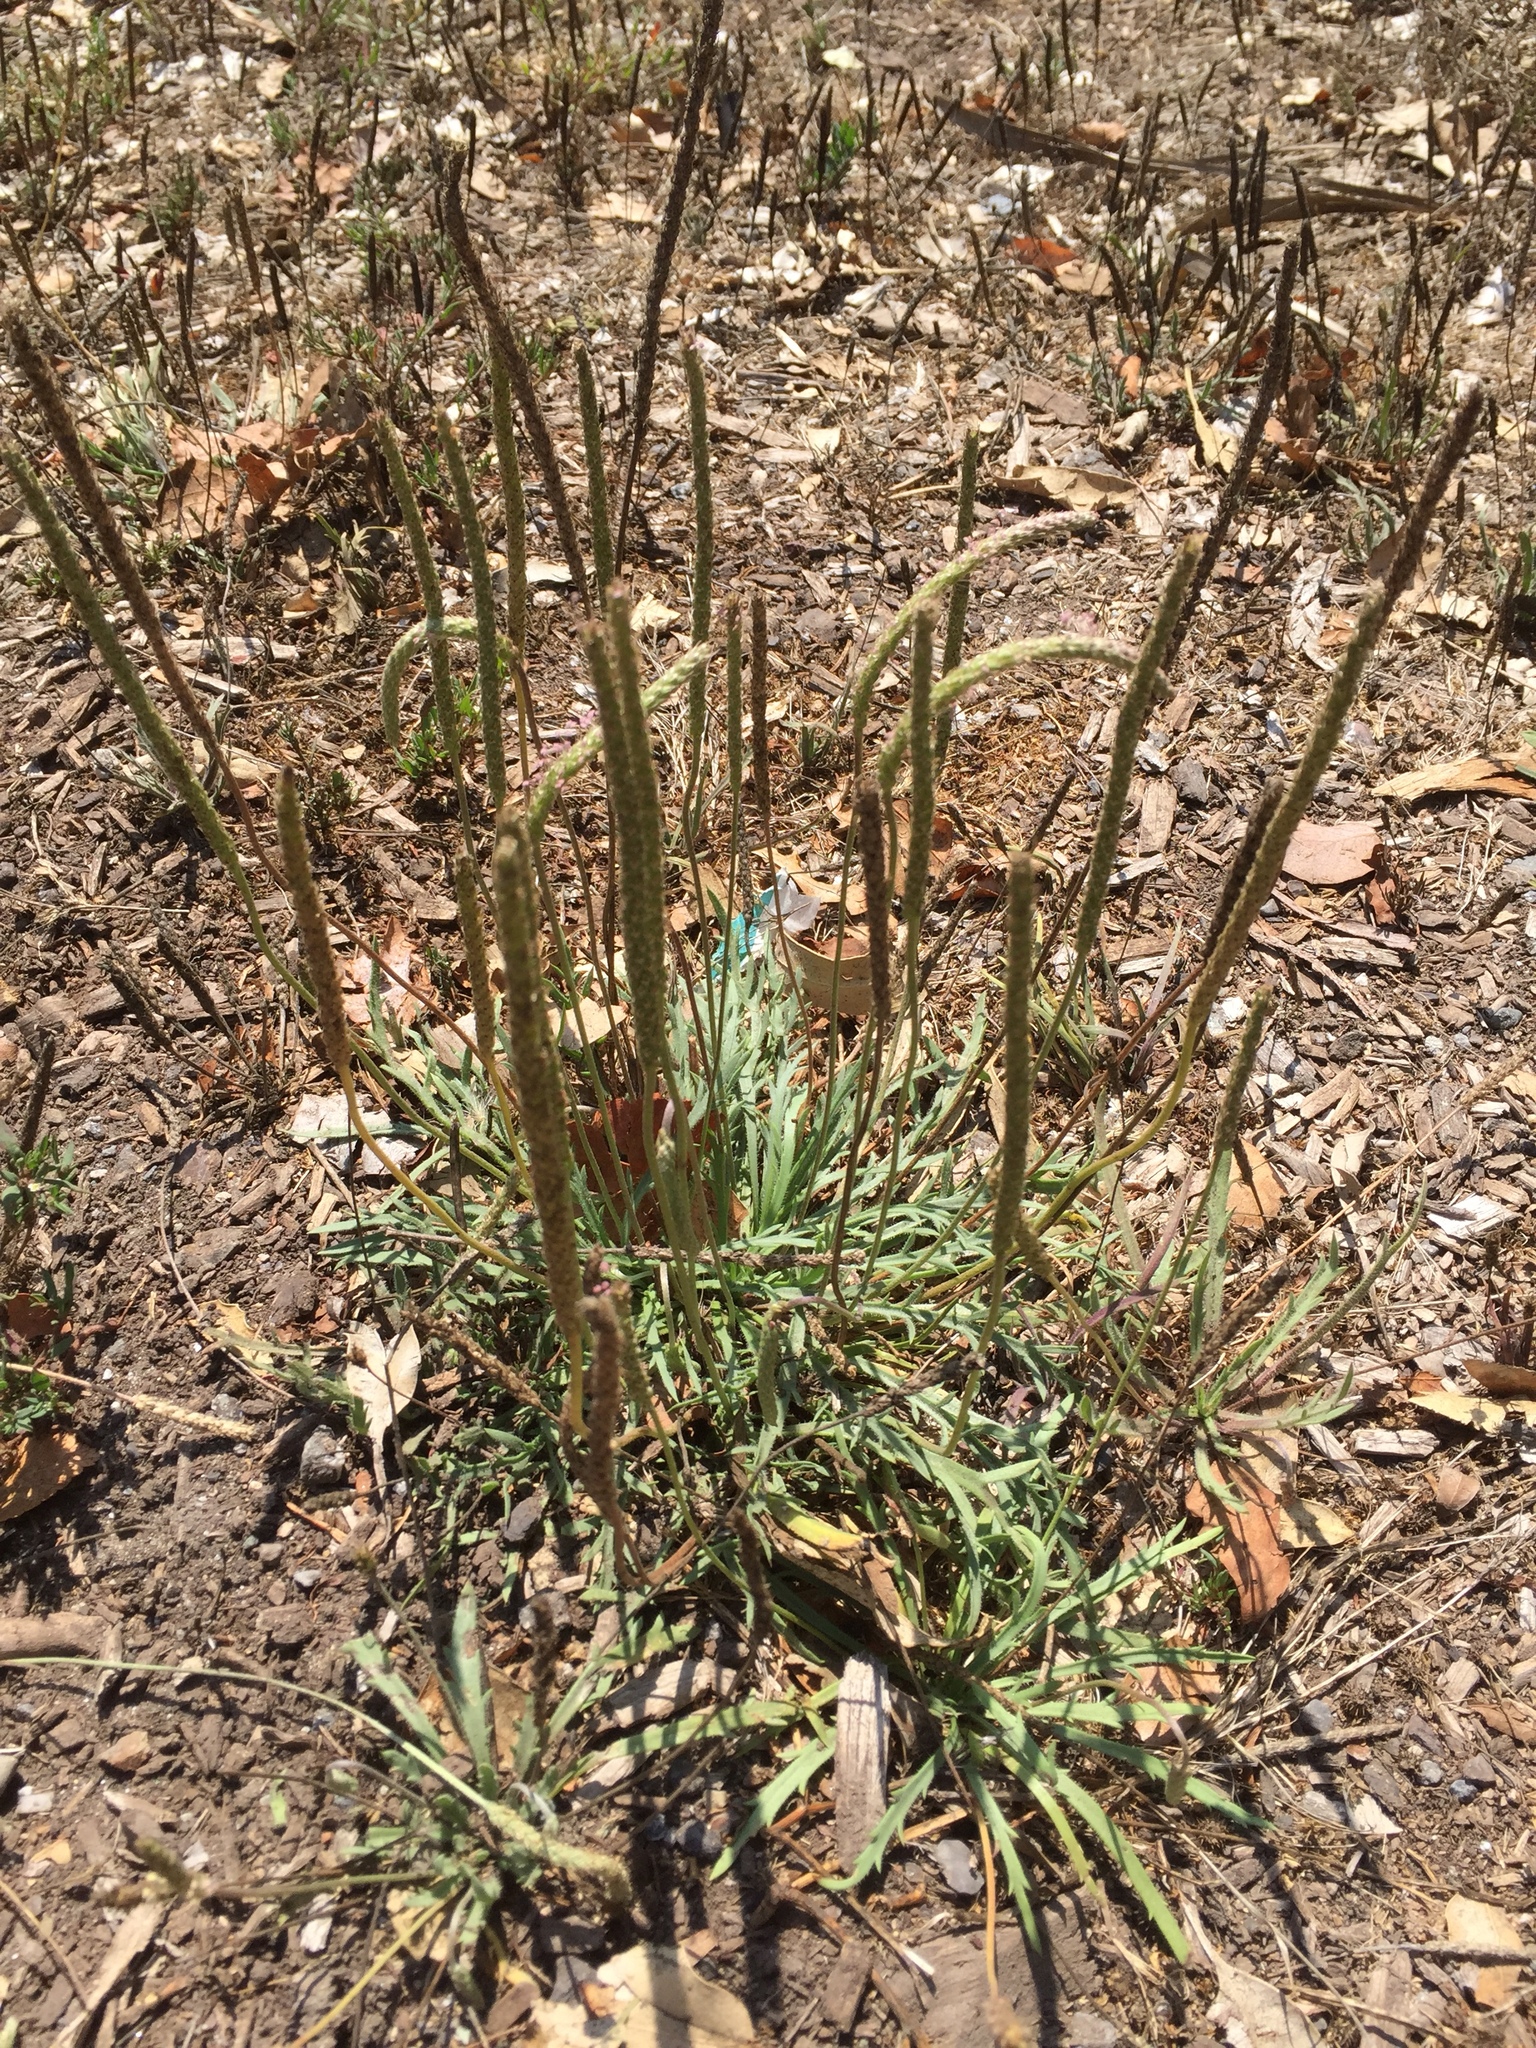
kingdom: Plantae
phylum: Tracheophyta
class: Magnoliopsida
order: Lamiales
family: Plantaginaceae
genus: Plantago
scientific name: Plantago coronopus
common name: Buck's-horn plantain
